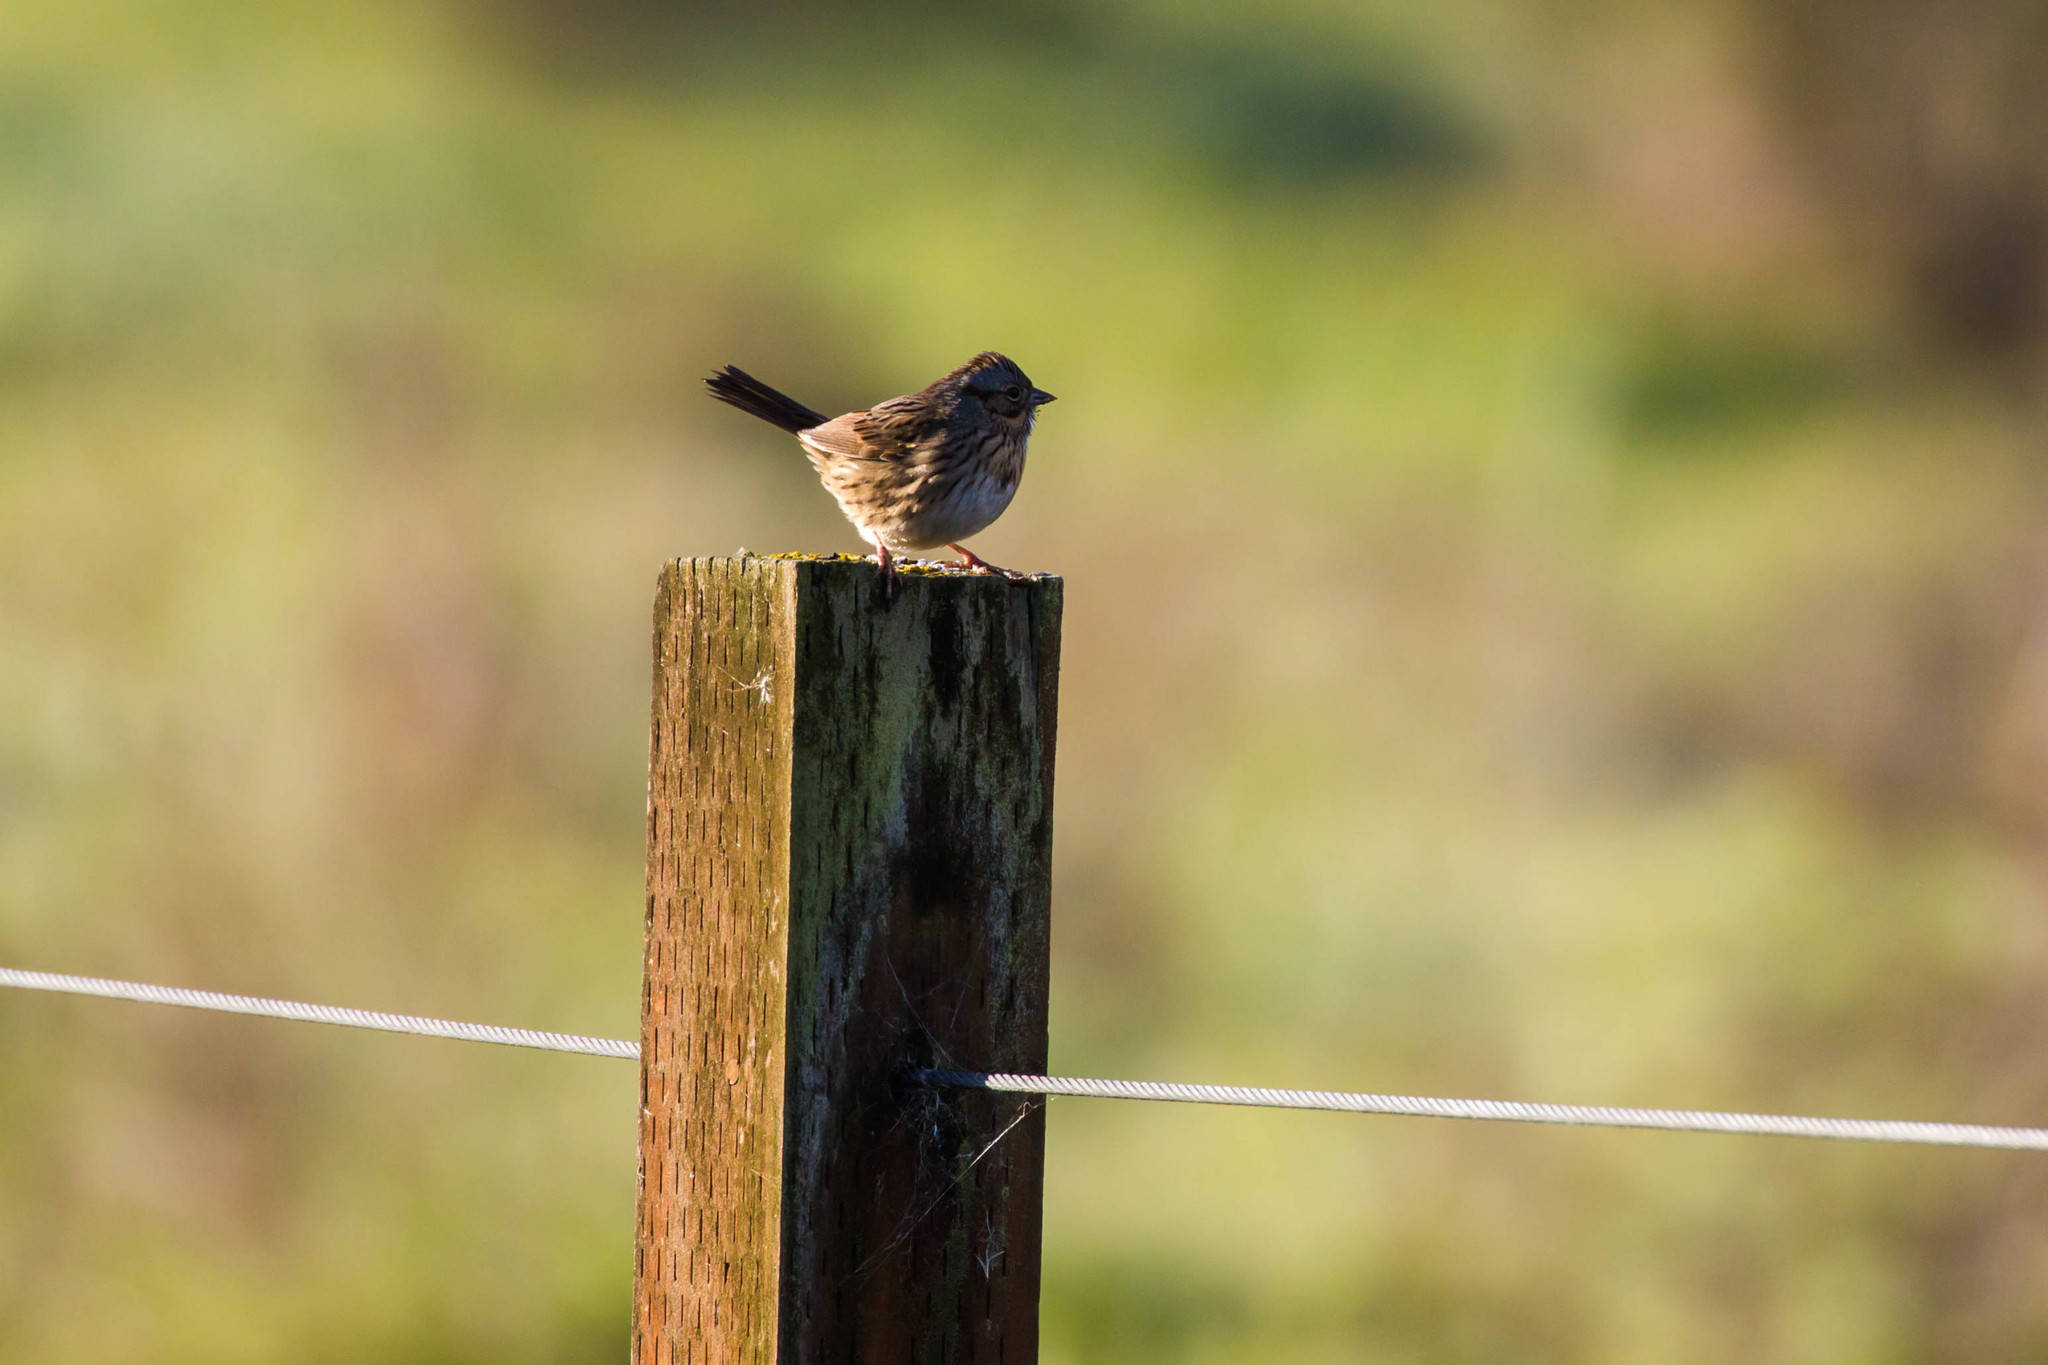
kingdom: Animalia
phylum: Chordata
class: Aves
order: Passeriformes
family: Passerellidae
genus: Melospiza
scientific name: Melospiza lincolnii
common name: Lincoln's sparrow
